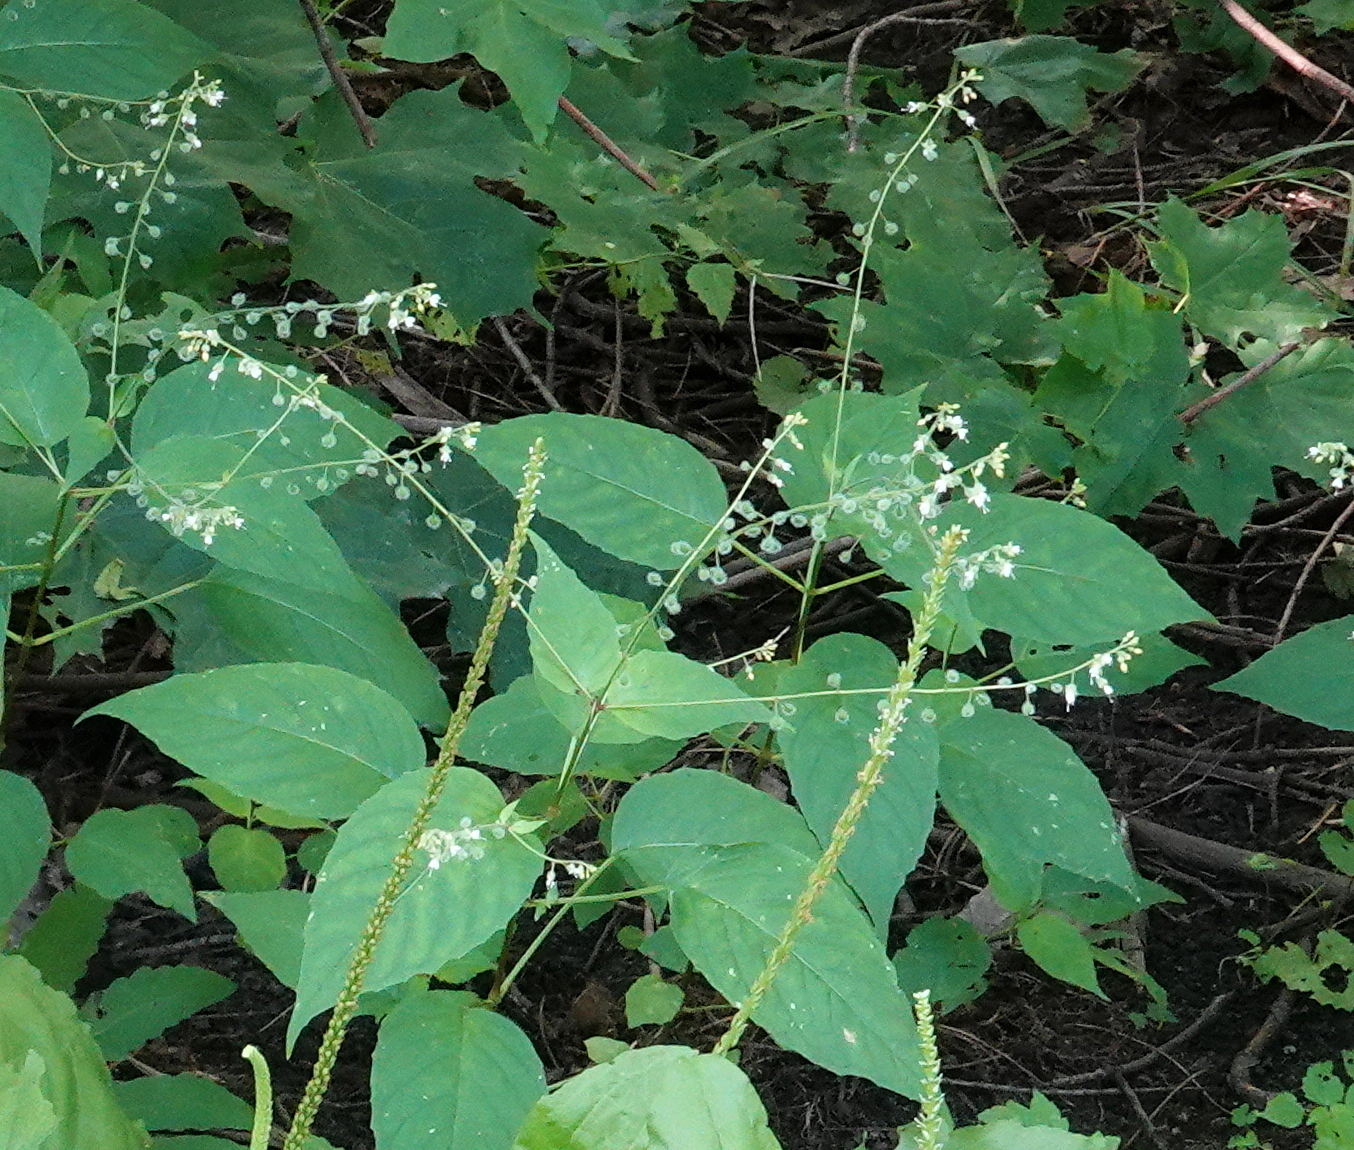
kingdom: Plantae
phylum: Tracheophyta
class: Magnoliopsida
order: Myrtales
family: Onagraceae
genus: Circaea
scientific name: Circaea canadensis
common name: Broad-leaved enchanter's nightshade
